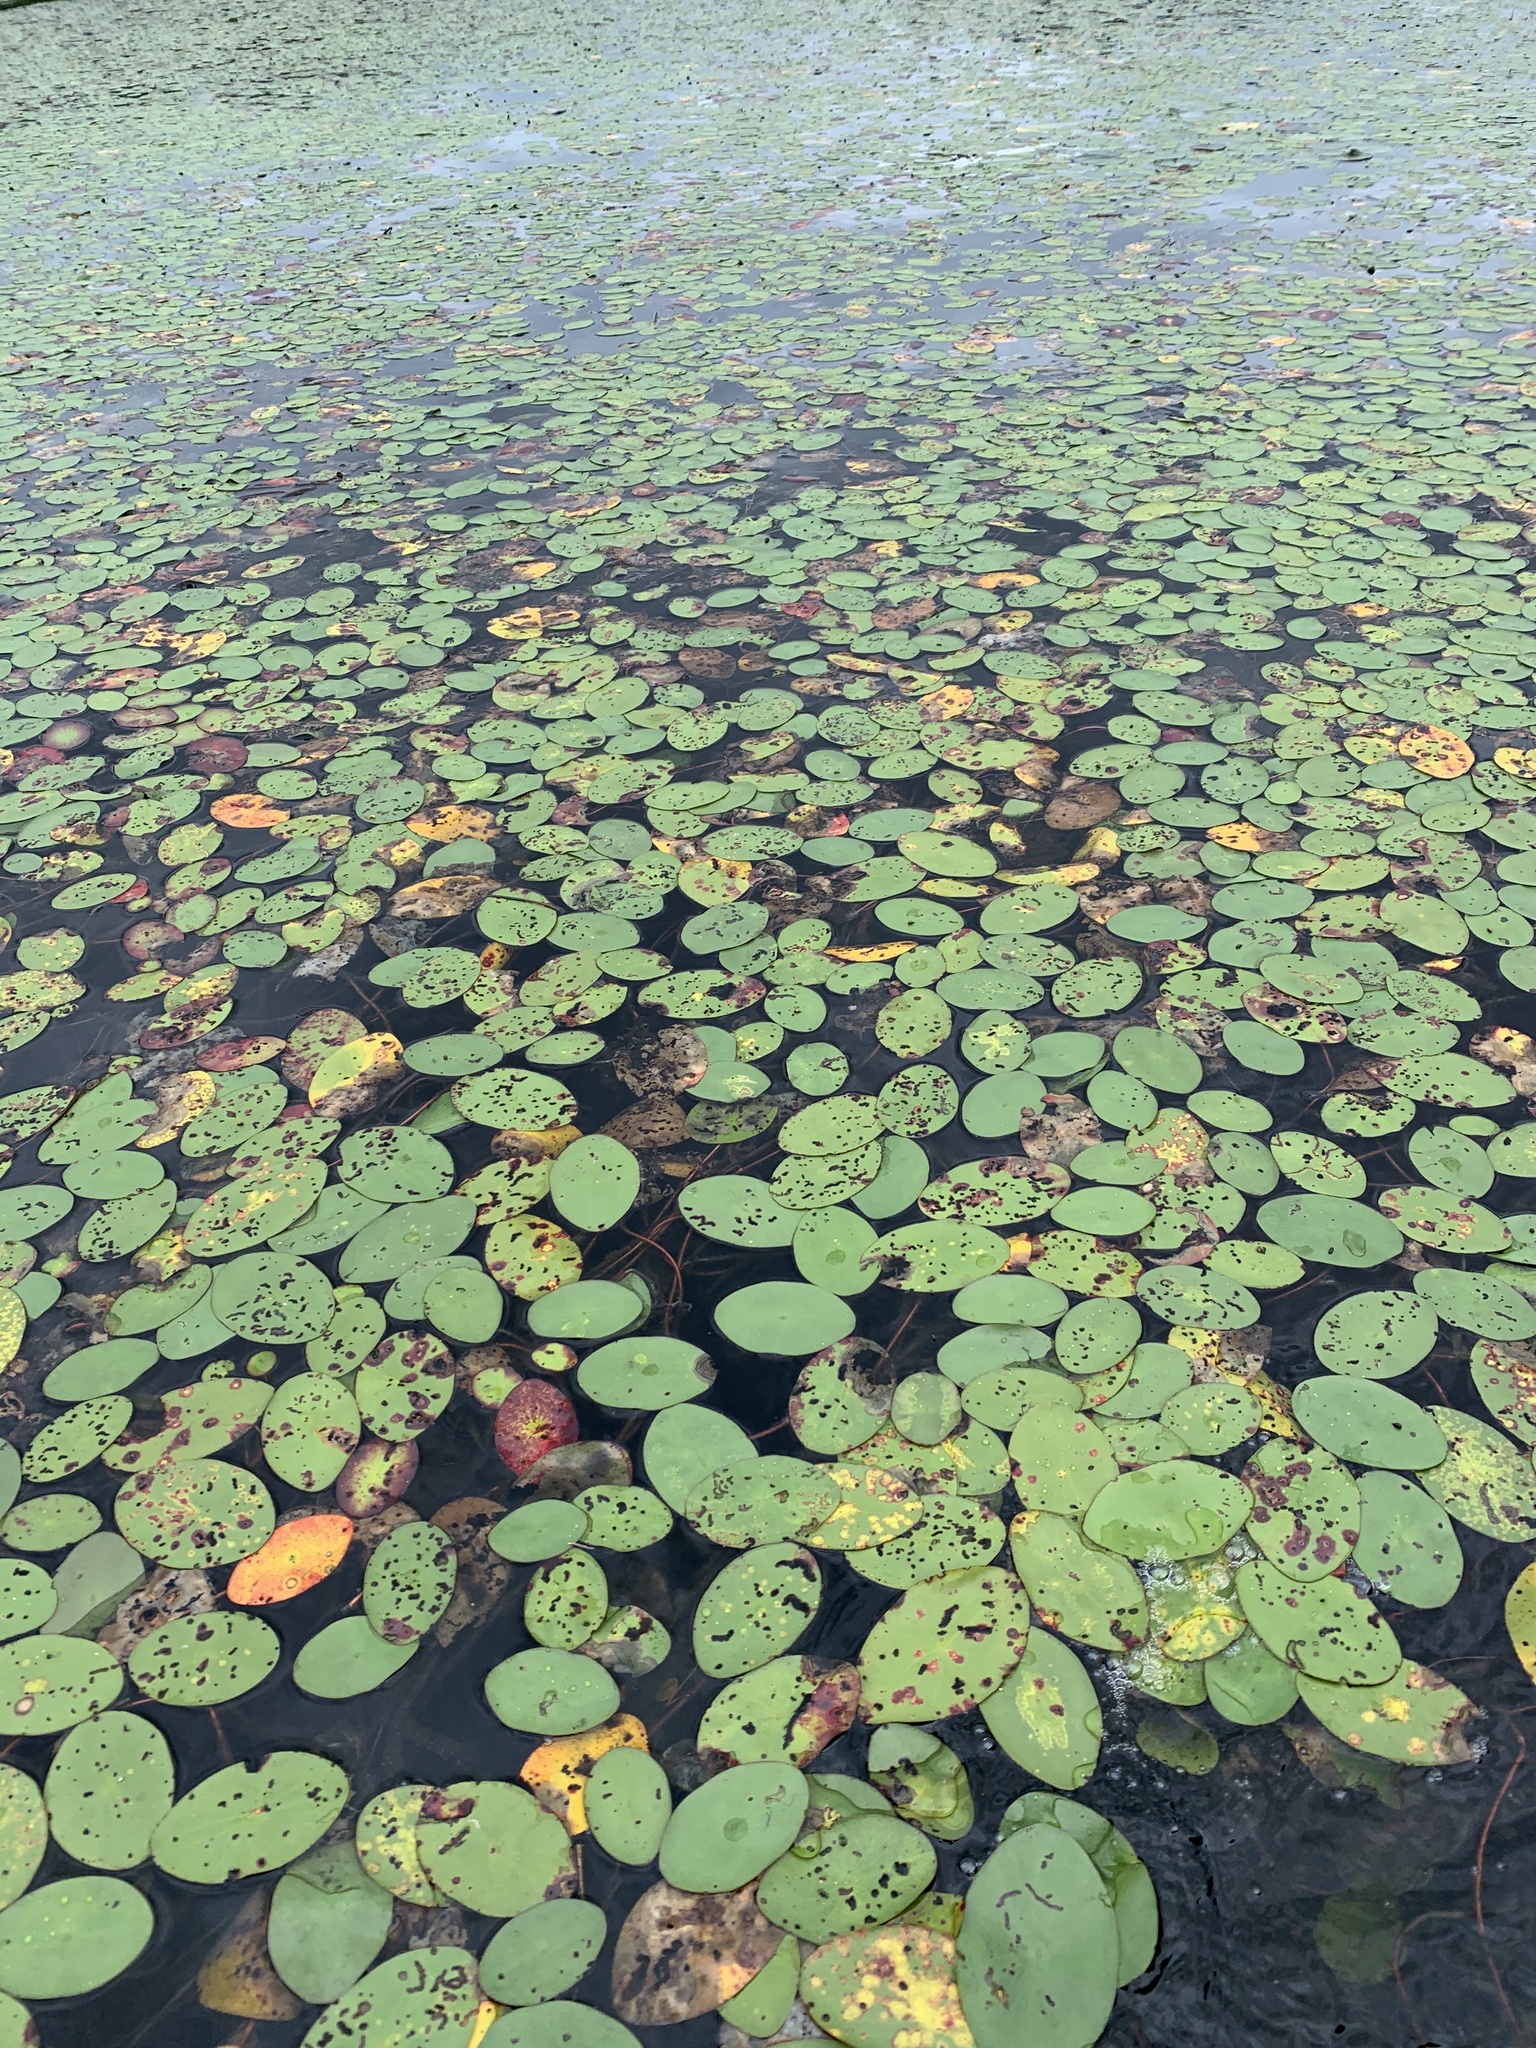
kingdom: Plantae
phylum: Tracheophyta
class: Magnoliopsida
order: Nymphaeales
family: Cabombaceae
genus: Brasenia
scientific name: Brasenia schreberi
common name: Water-shield
